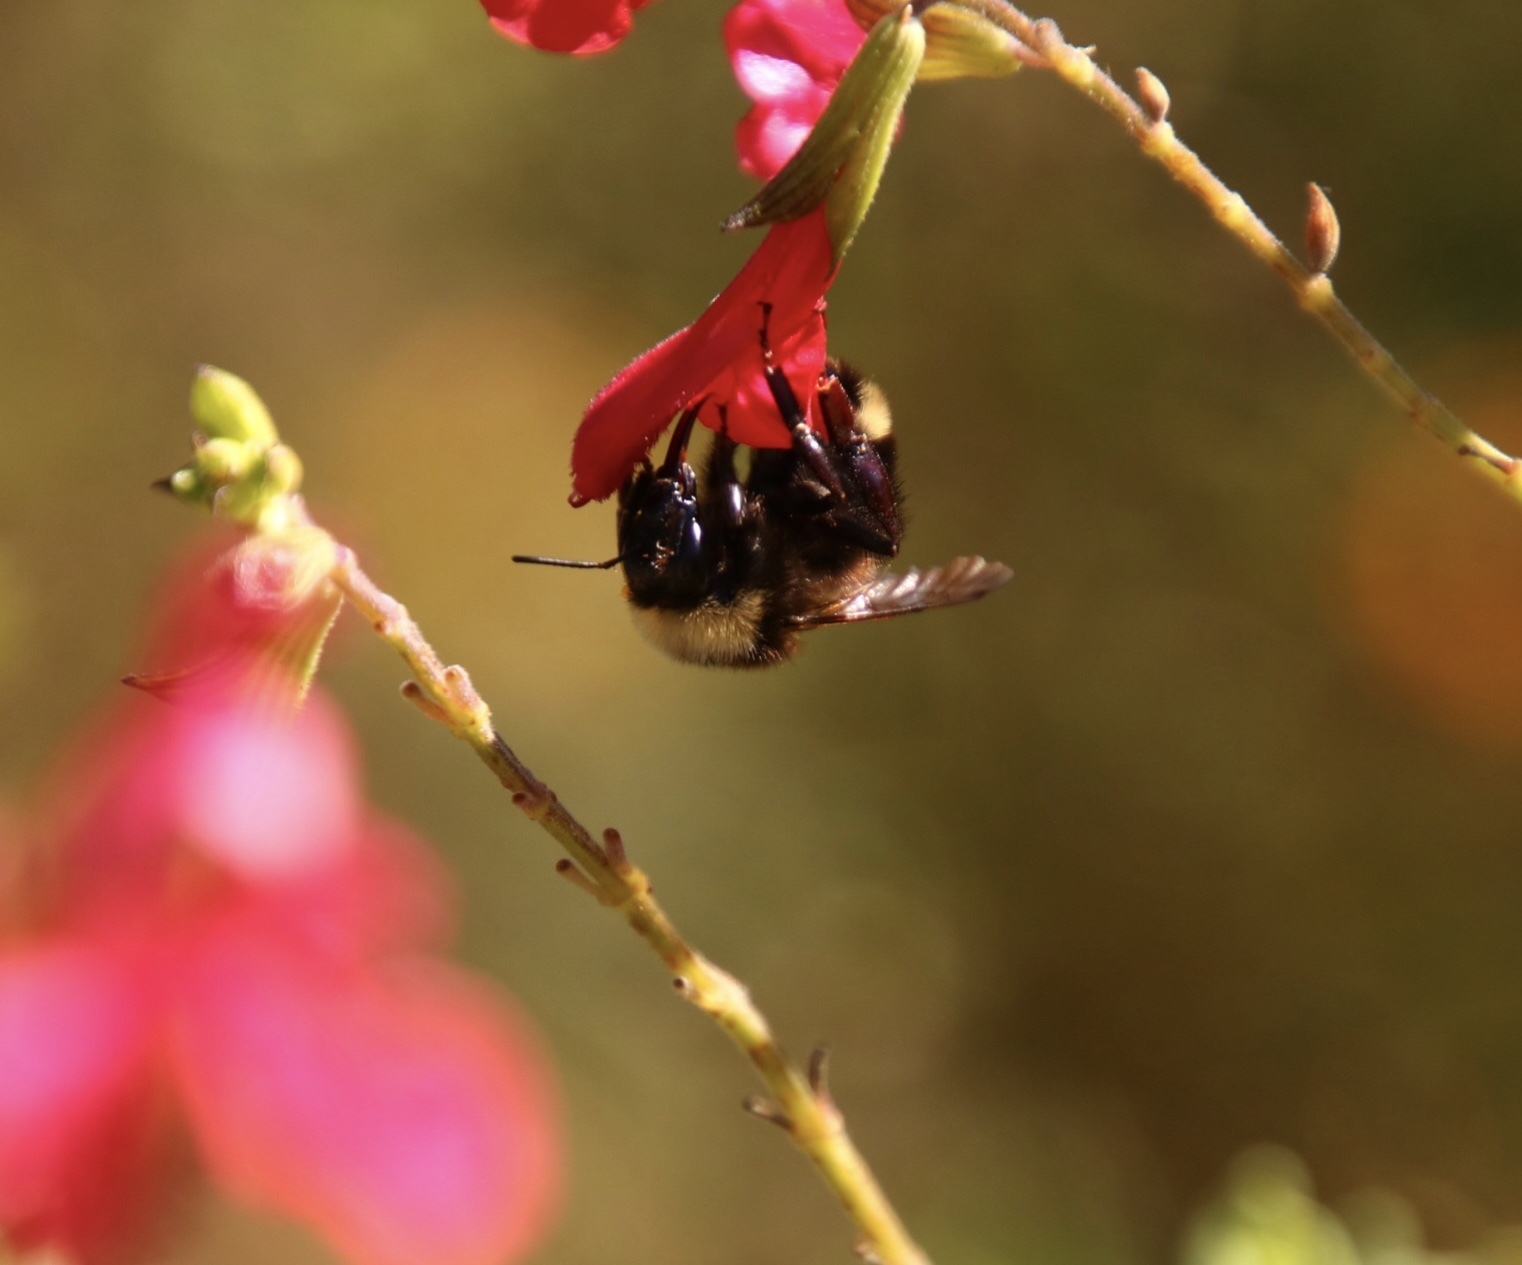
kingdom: Animalia
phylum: Arthropoda
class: Insecta
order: Hymenoptera
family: Apidae
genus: Bombus
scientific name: Bombus californicus
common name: California bumble bee
